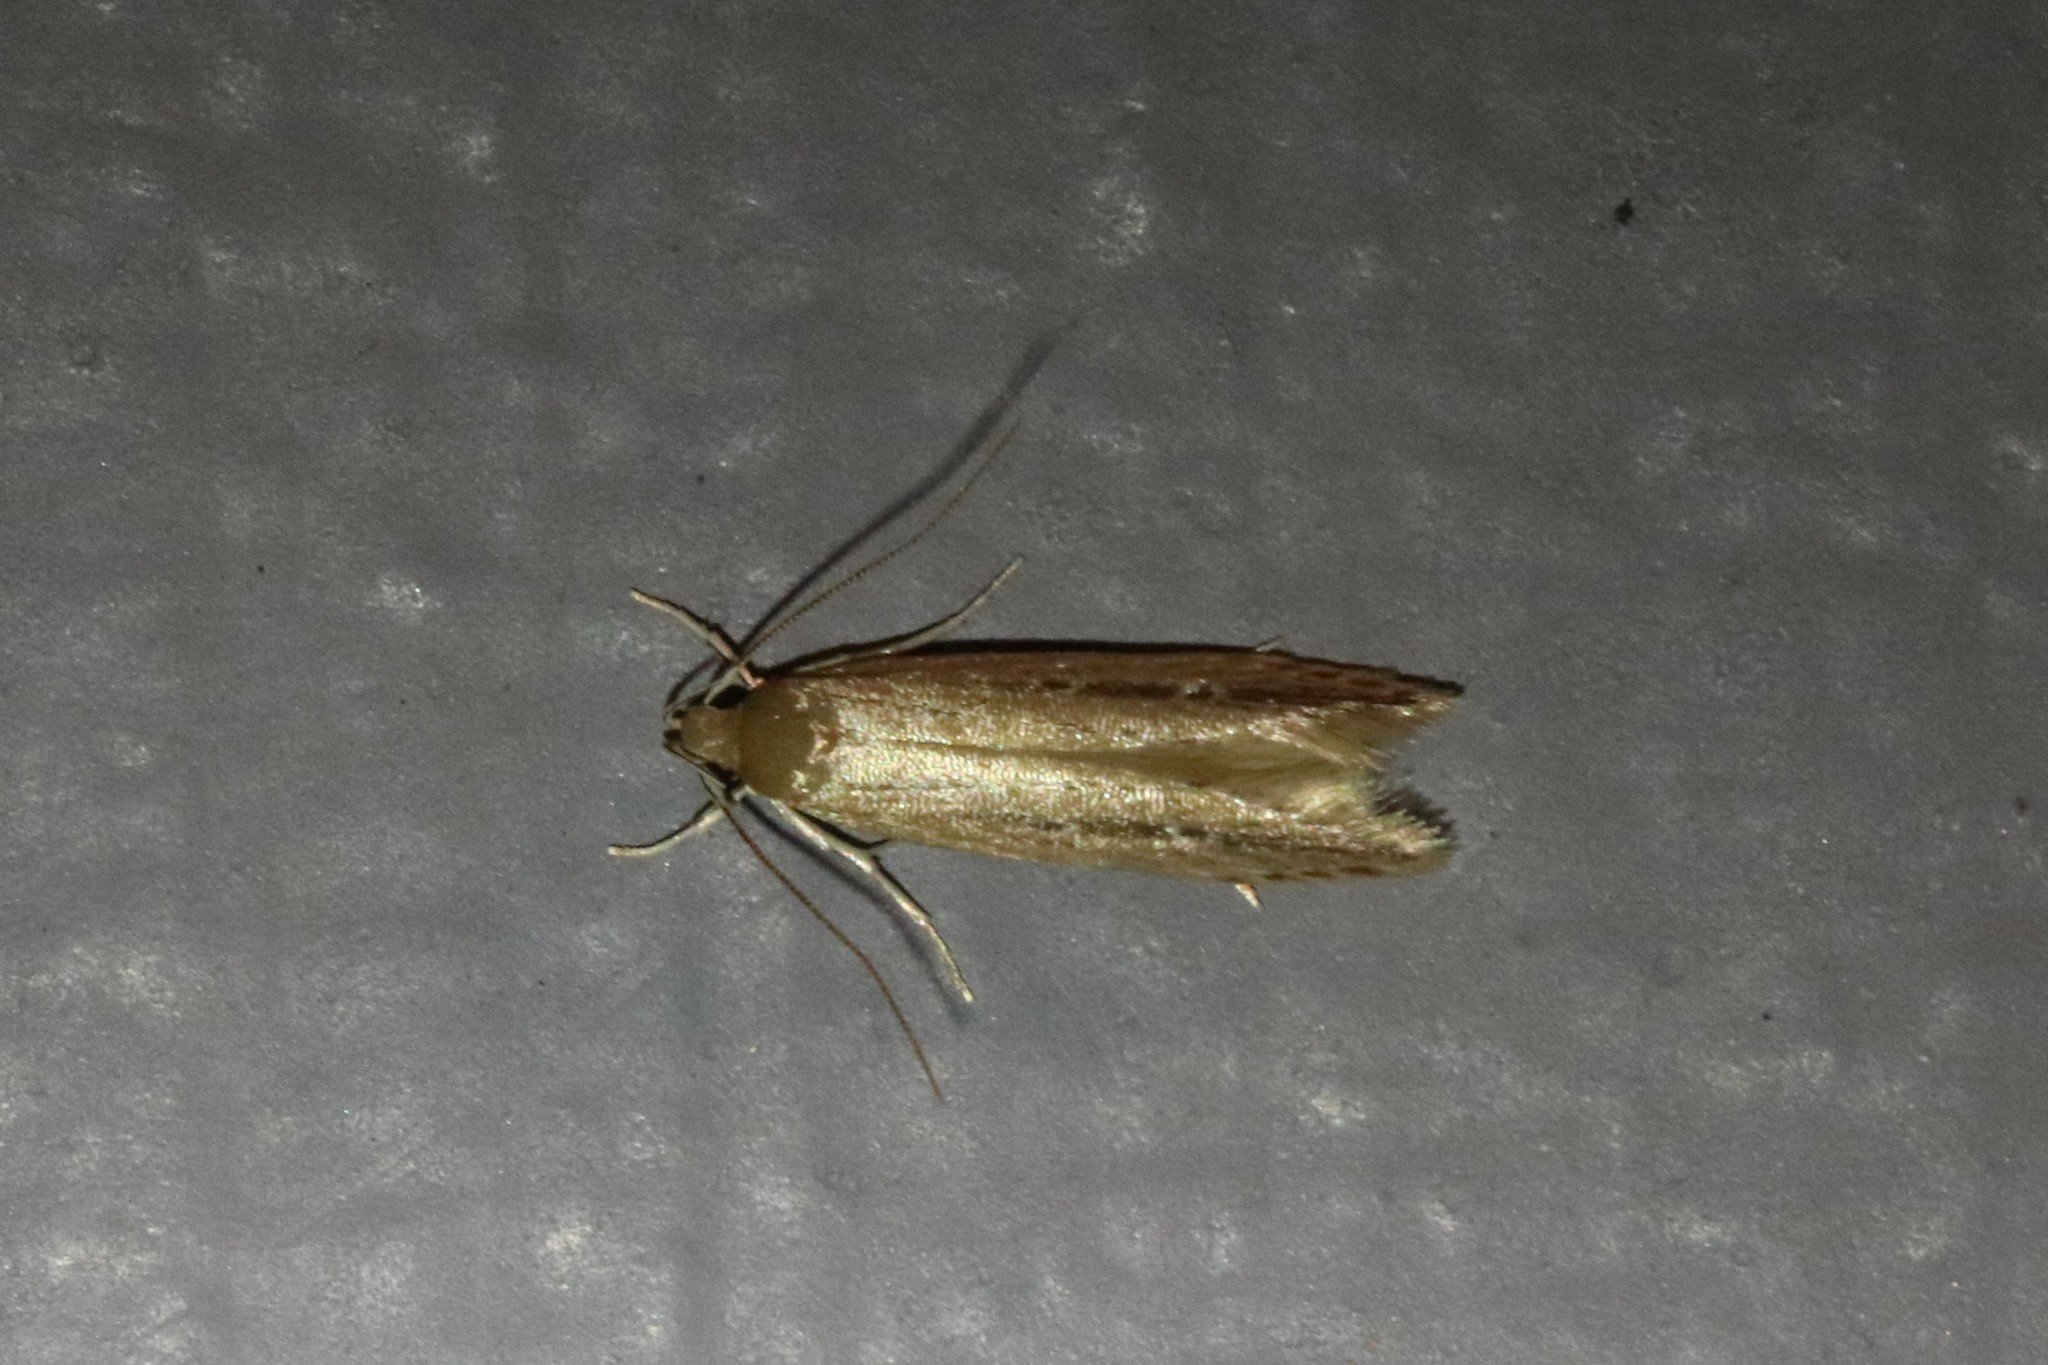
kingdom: Animalia
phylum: Arthropoda
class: Insecta
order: Lepidoptera
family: Cosmopterigidae
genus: Limnaecia
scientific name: Limnaecia phragmitella
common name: Bulrush cosmet
